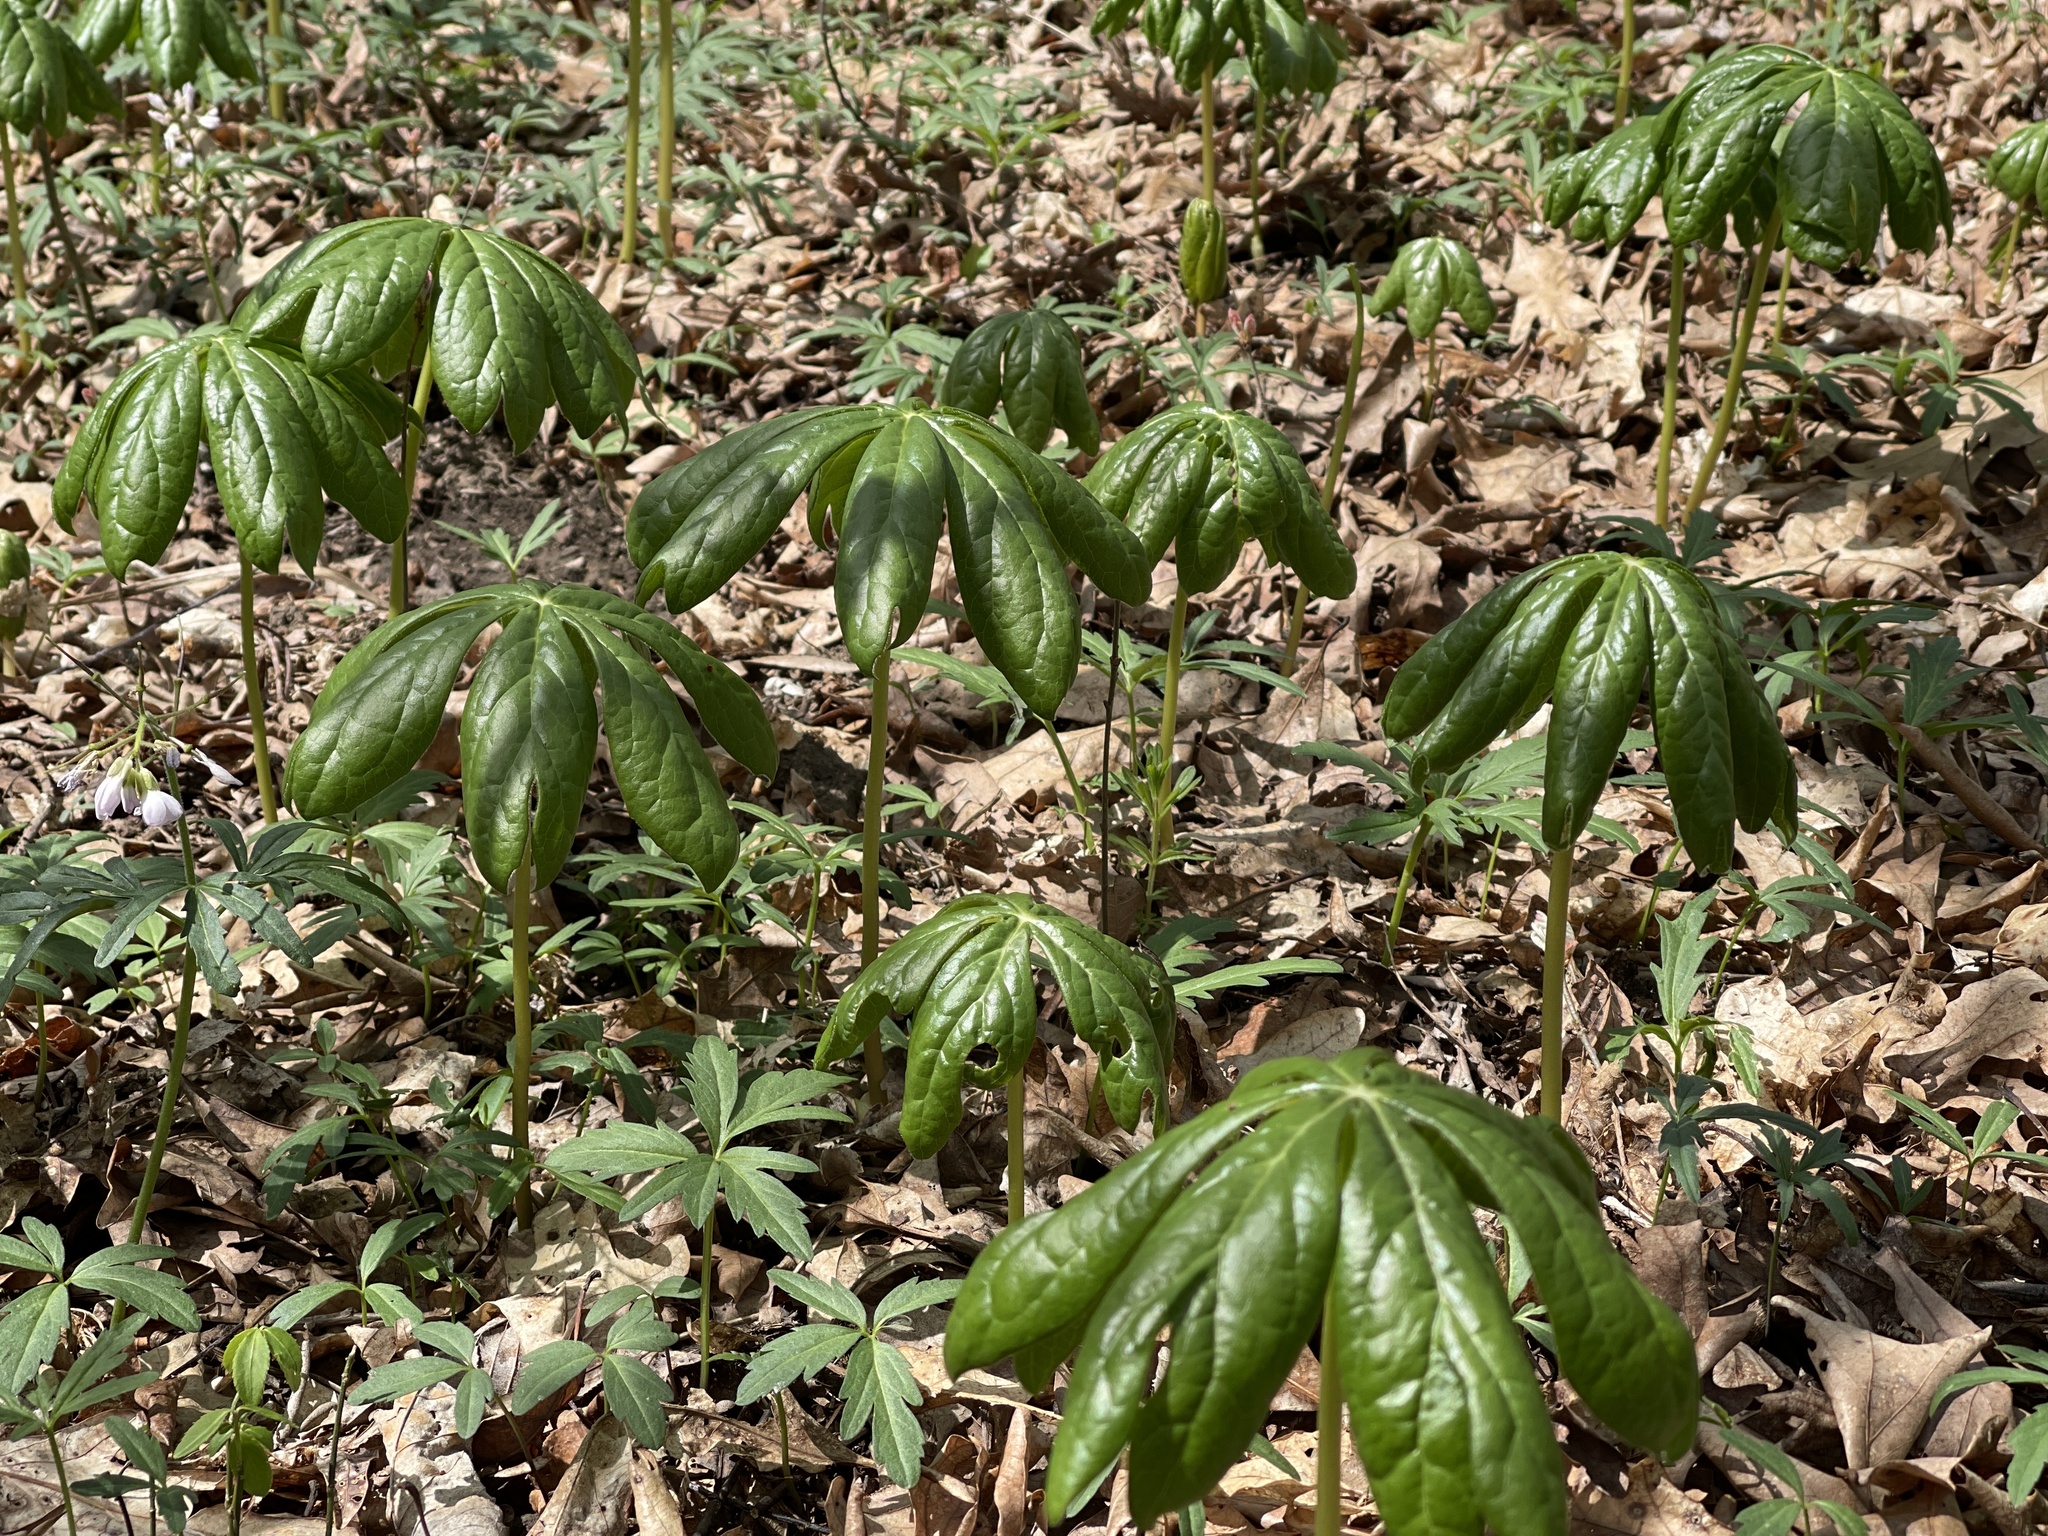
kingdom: Plantae
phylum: Tracheophyta
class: Magnoliopsida
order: Ranunculales
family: Berberidaceae
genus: Podophyllum
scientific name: Podophyllum peltatum
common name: Wild mandrake
